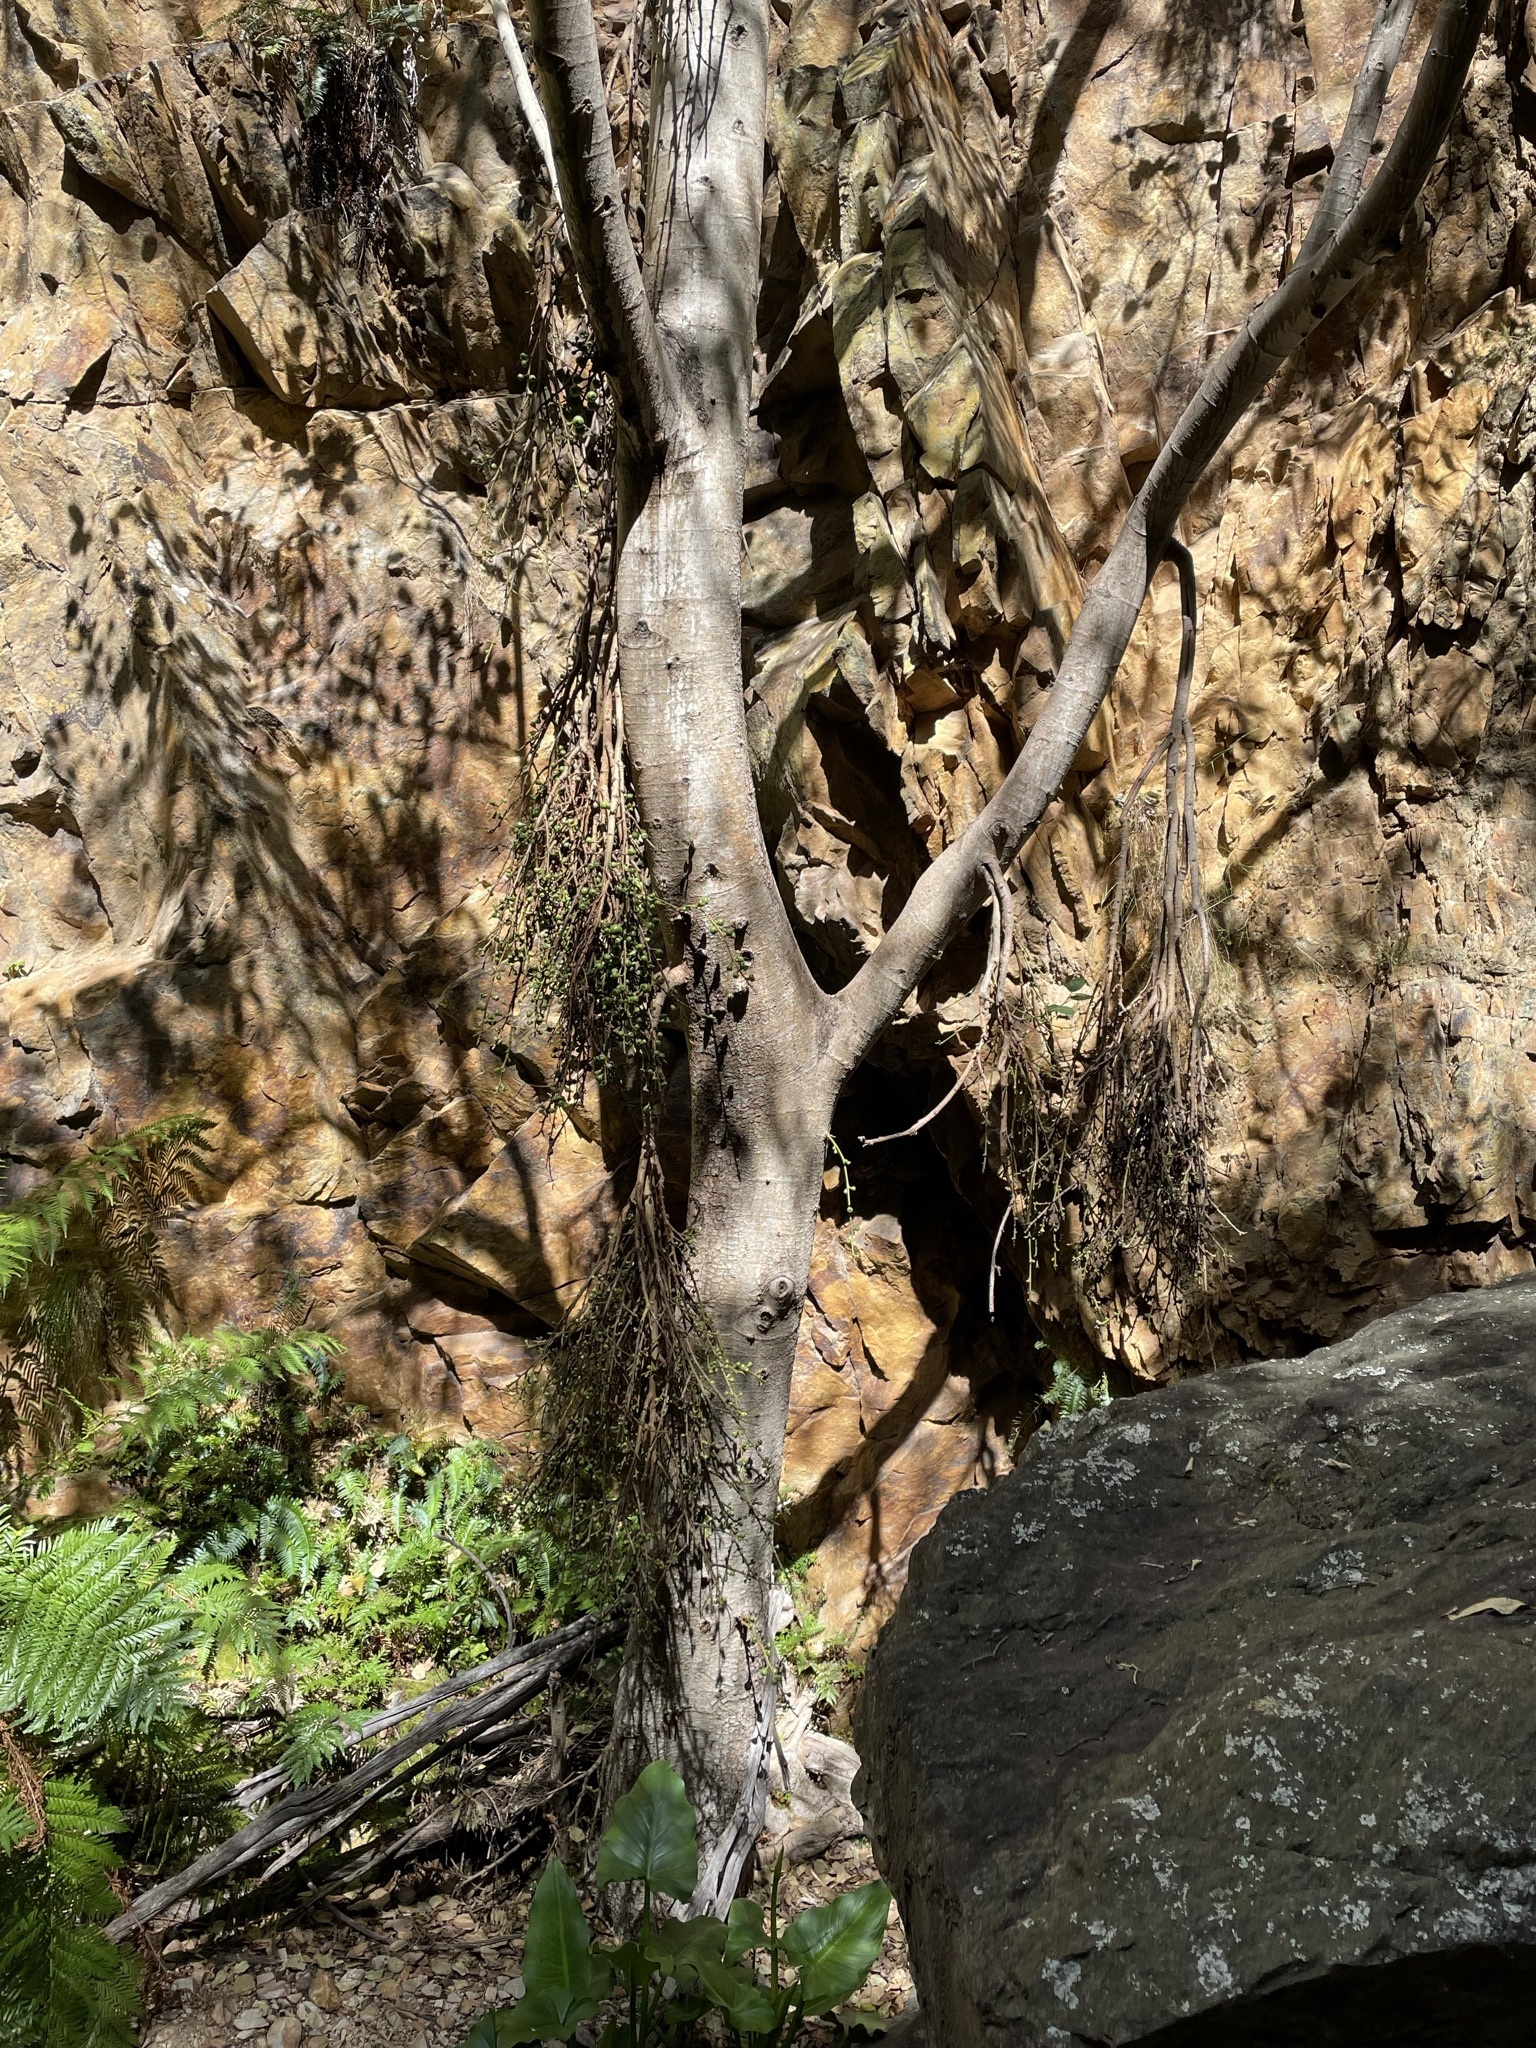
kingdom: Plantae
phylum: Tracheophyta
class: Magnoliopsida
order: Rosales
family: Moraceae
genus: Ficus
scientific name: Ficus sur
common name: Cape fig
